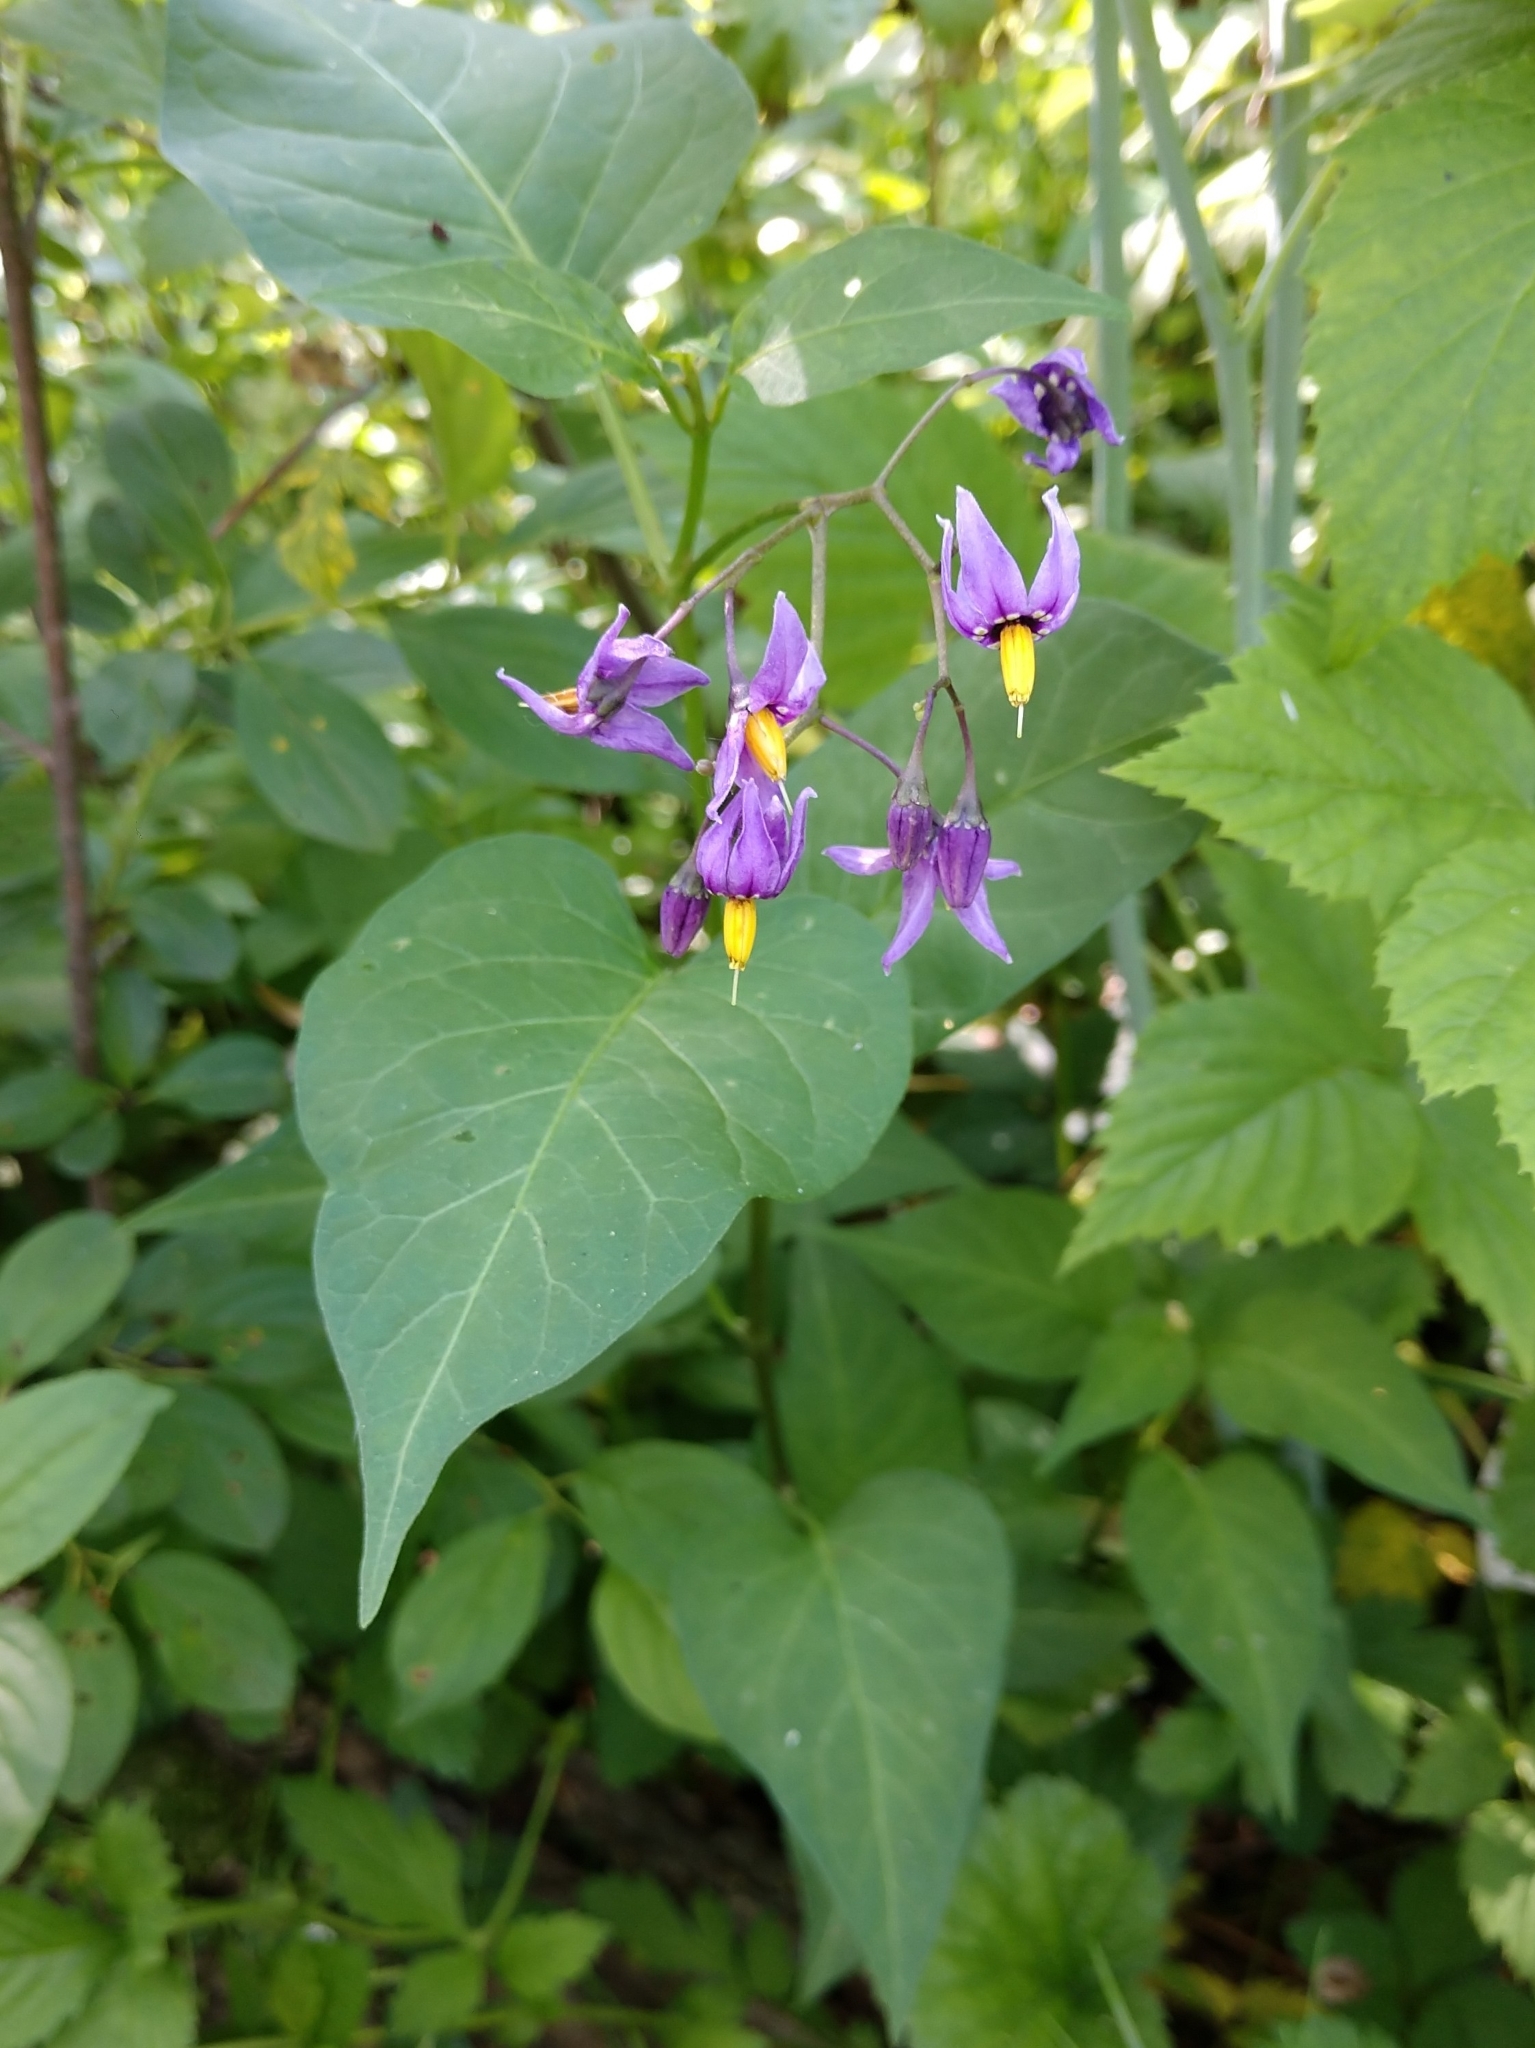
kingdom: Plantae
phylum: Tracheophyta
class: Magnoliopsida
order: Solanales
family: Solanaceae
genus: Solanum
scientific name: Solanum dulcamara
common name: Climbing nightshade
